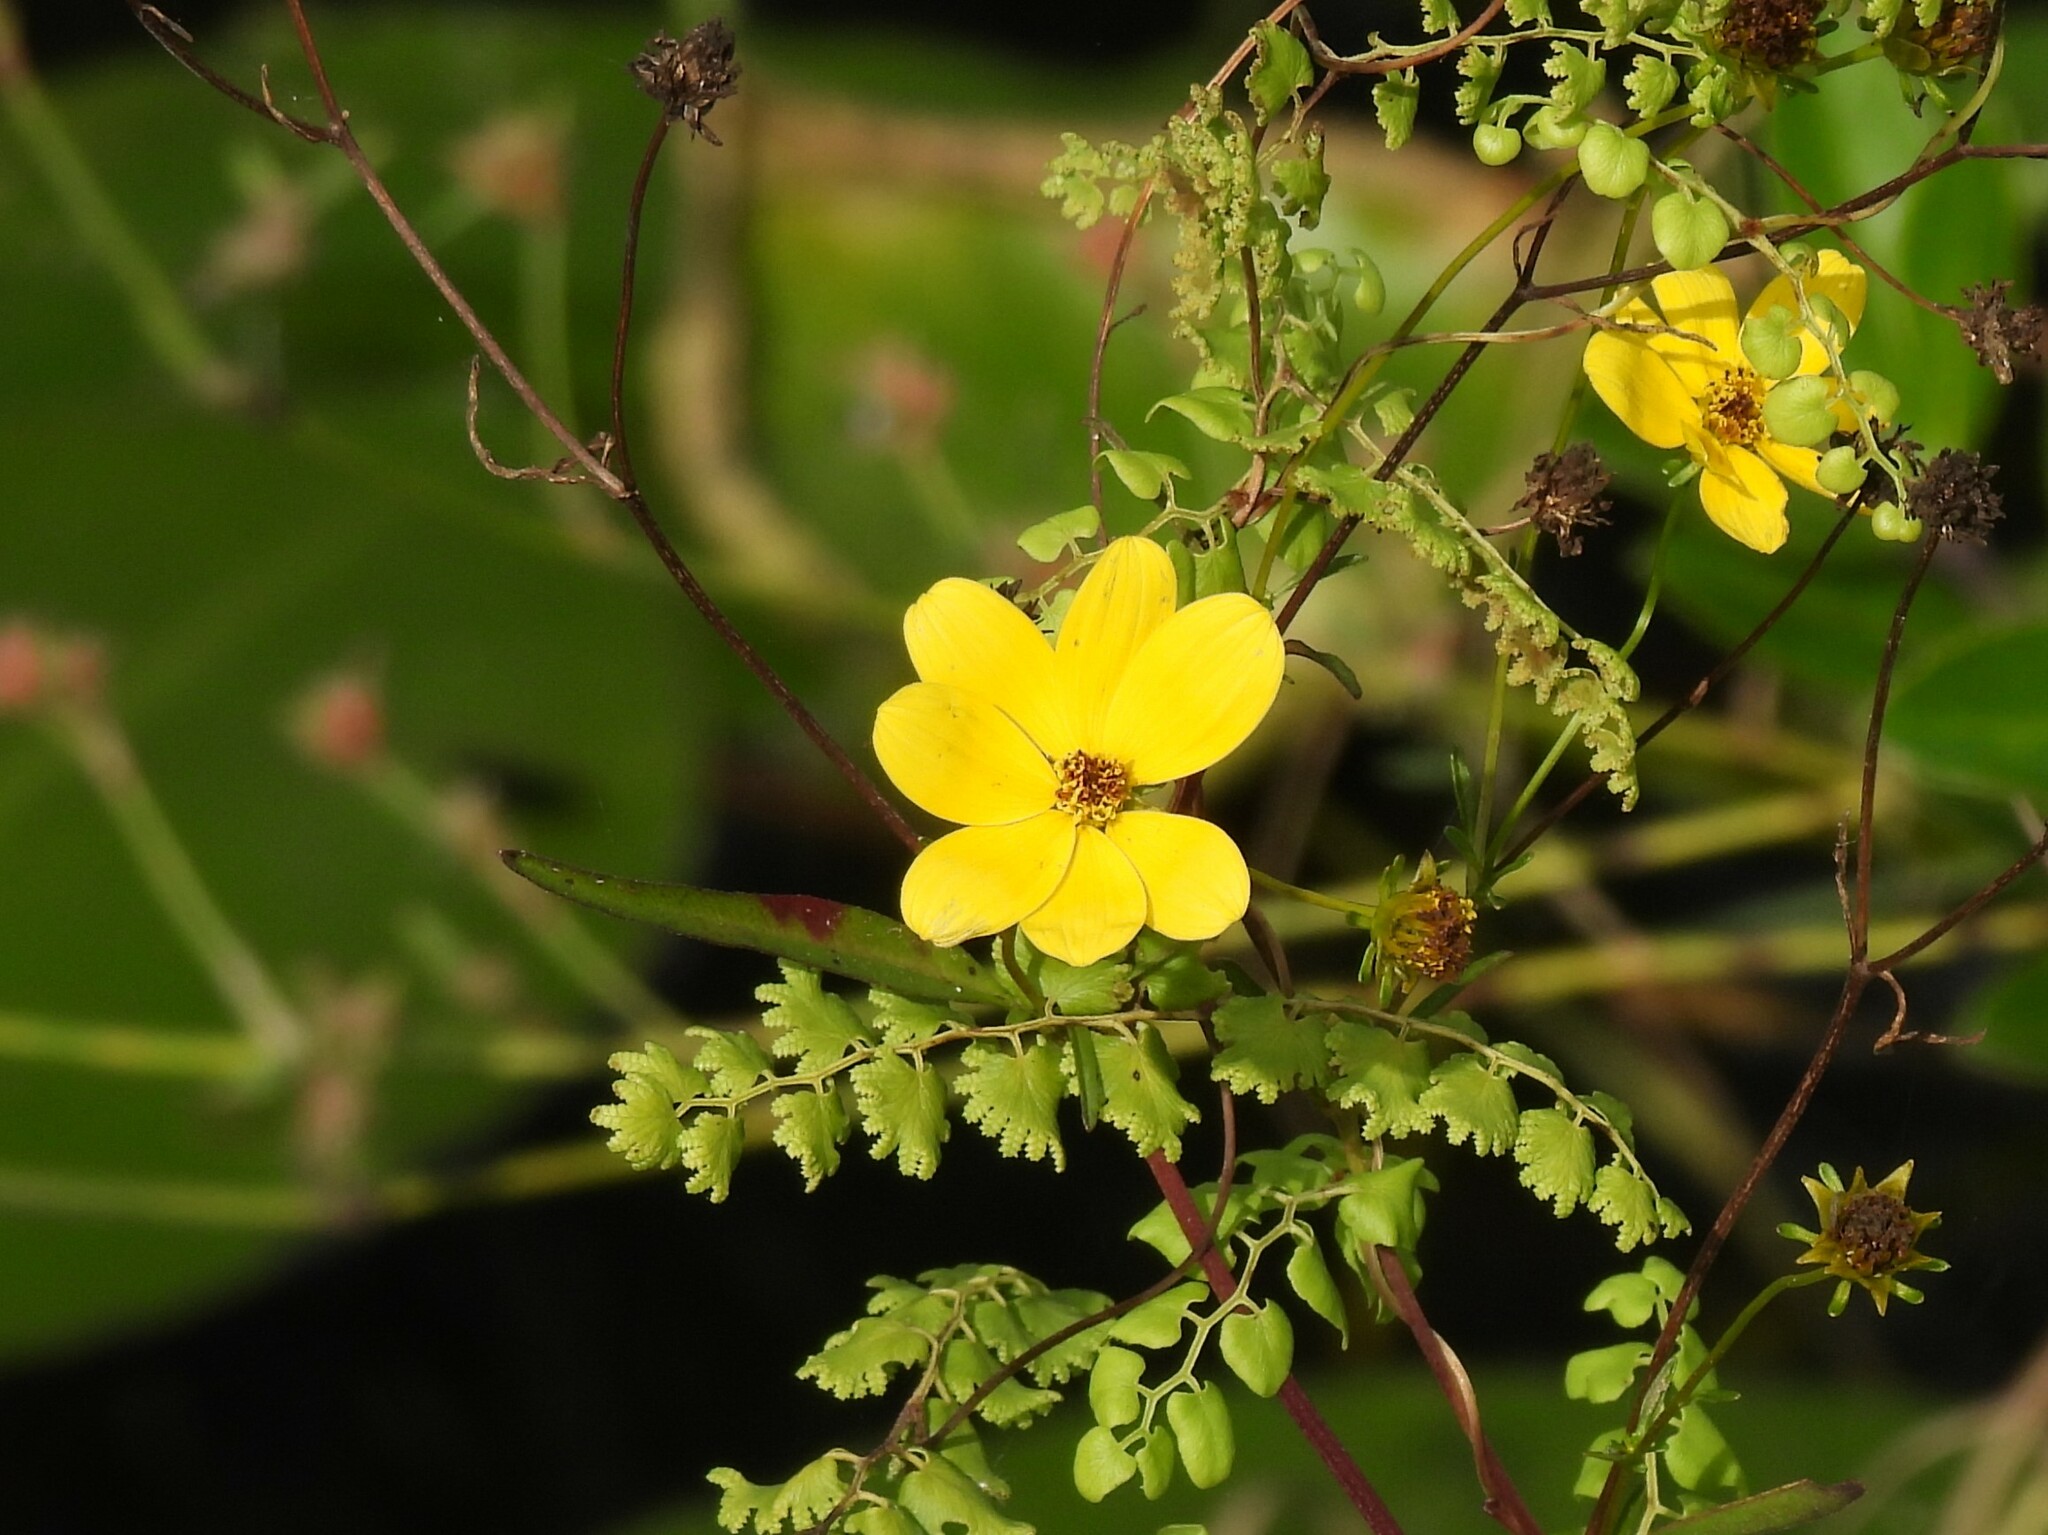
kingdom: Plantae
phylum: Tracheophyta
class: Magnoliopsida
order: Asterales
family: Asteraceae
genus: Bidens
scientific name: Bidens mitis
